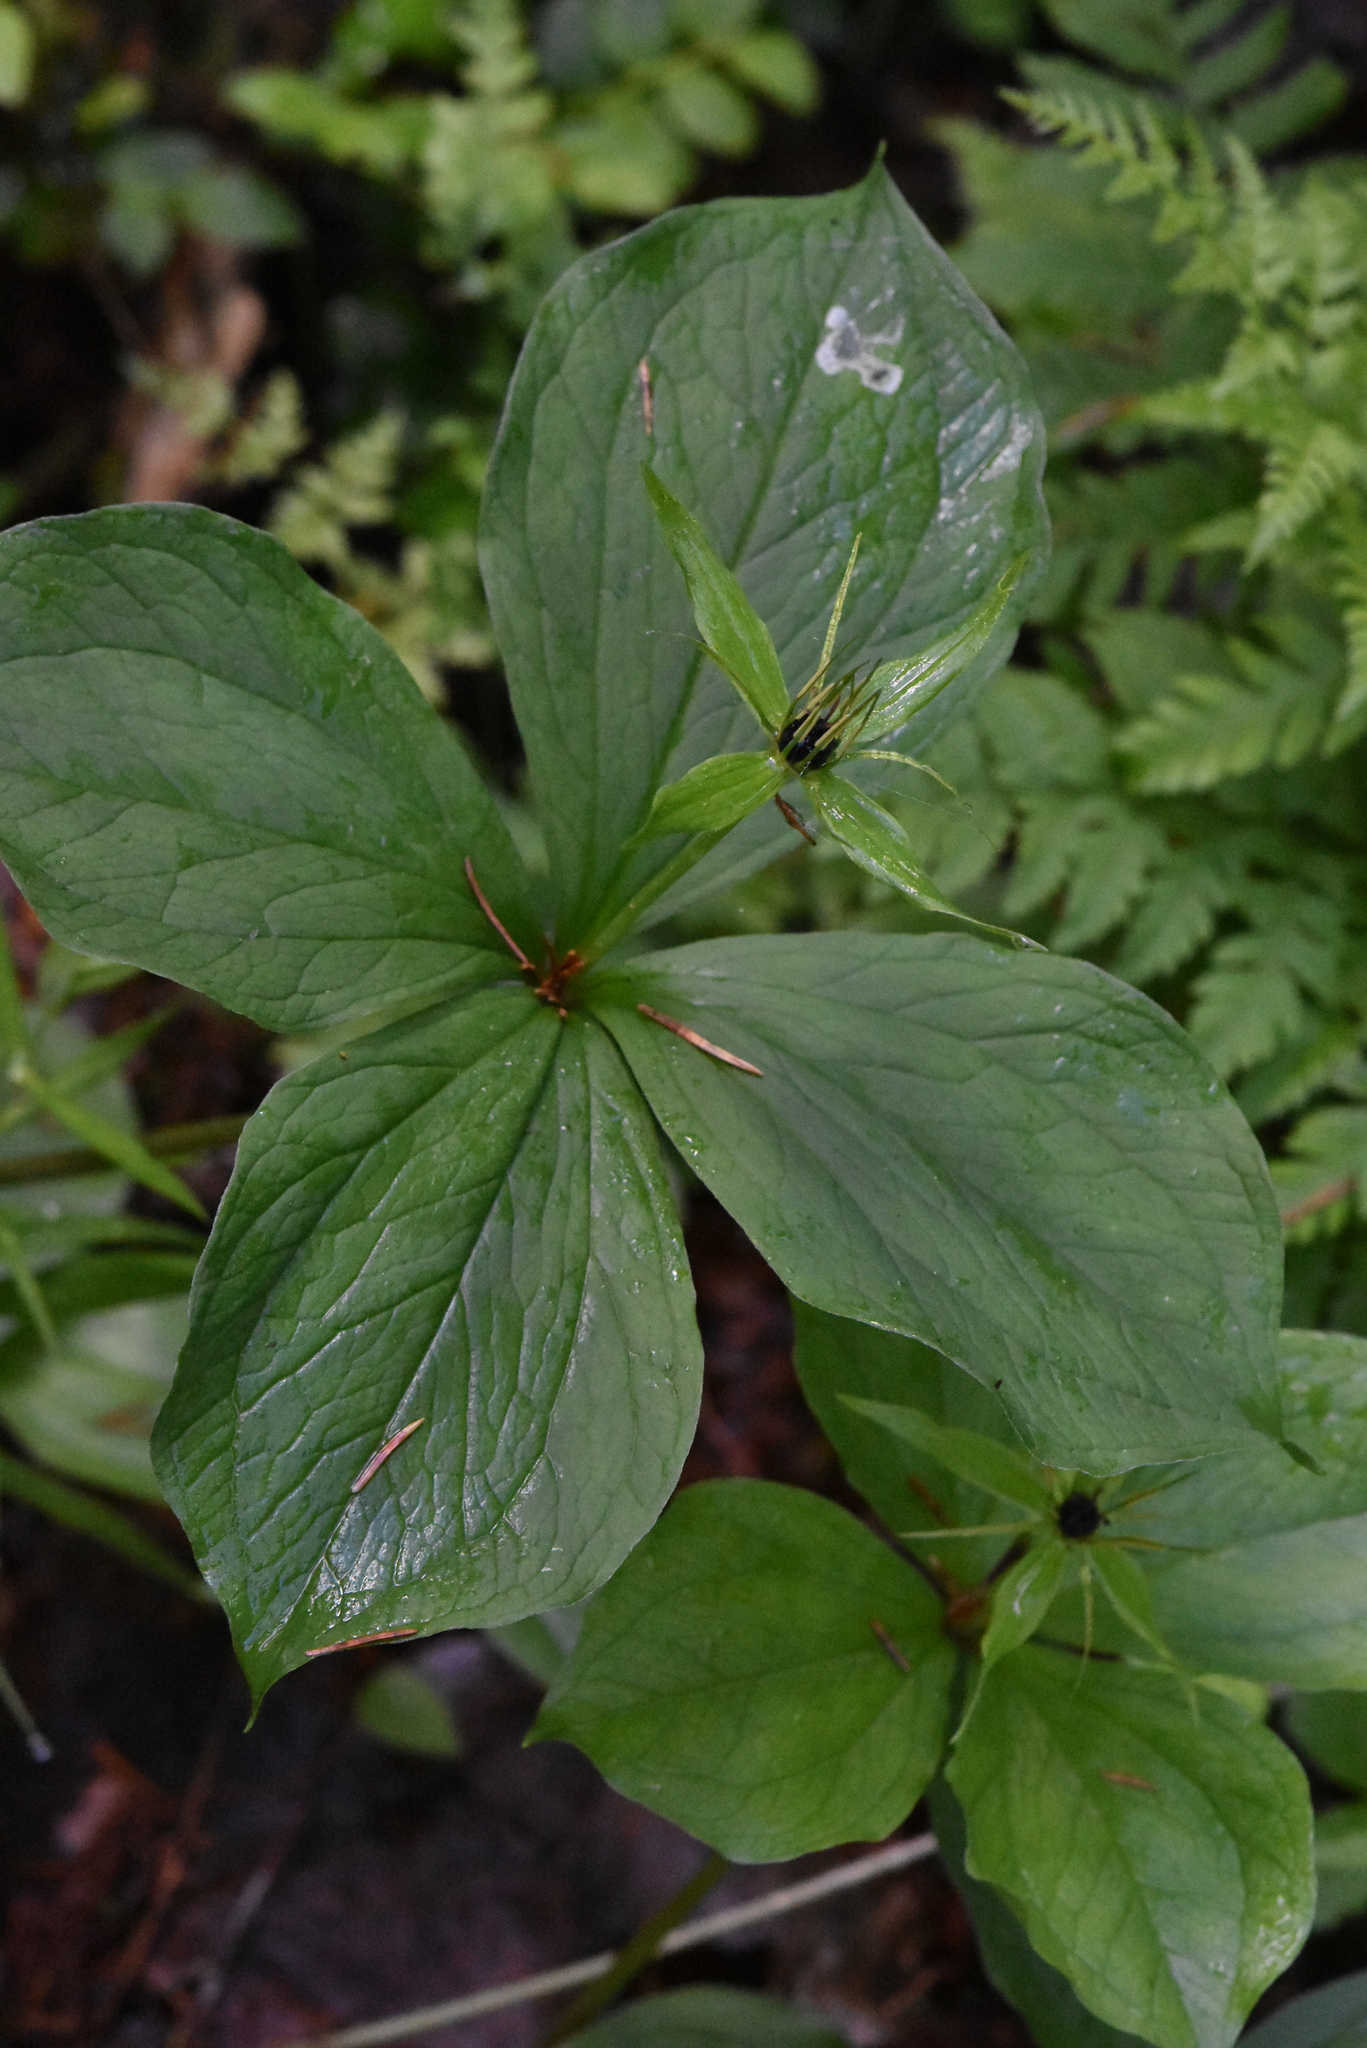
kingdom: Plantae
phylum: Tracheophyta
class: Liliopsida
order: Liliales
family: Melanthiaceae
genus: Paris
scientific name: Paris quadrifolia
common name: Herb-paris
